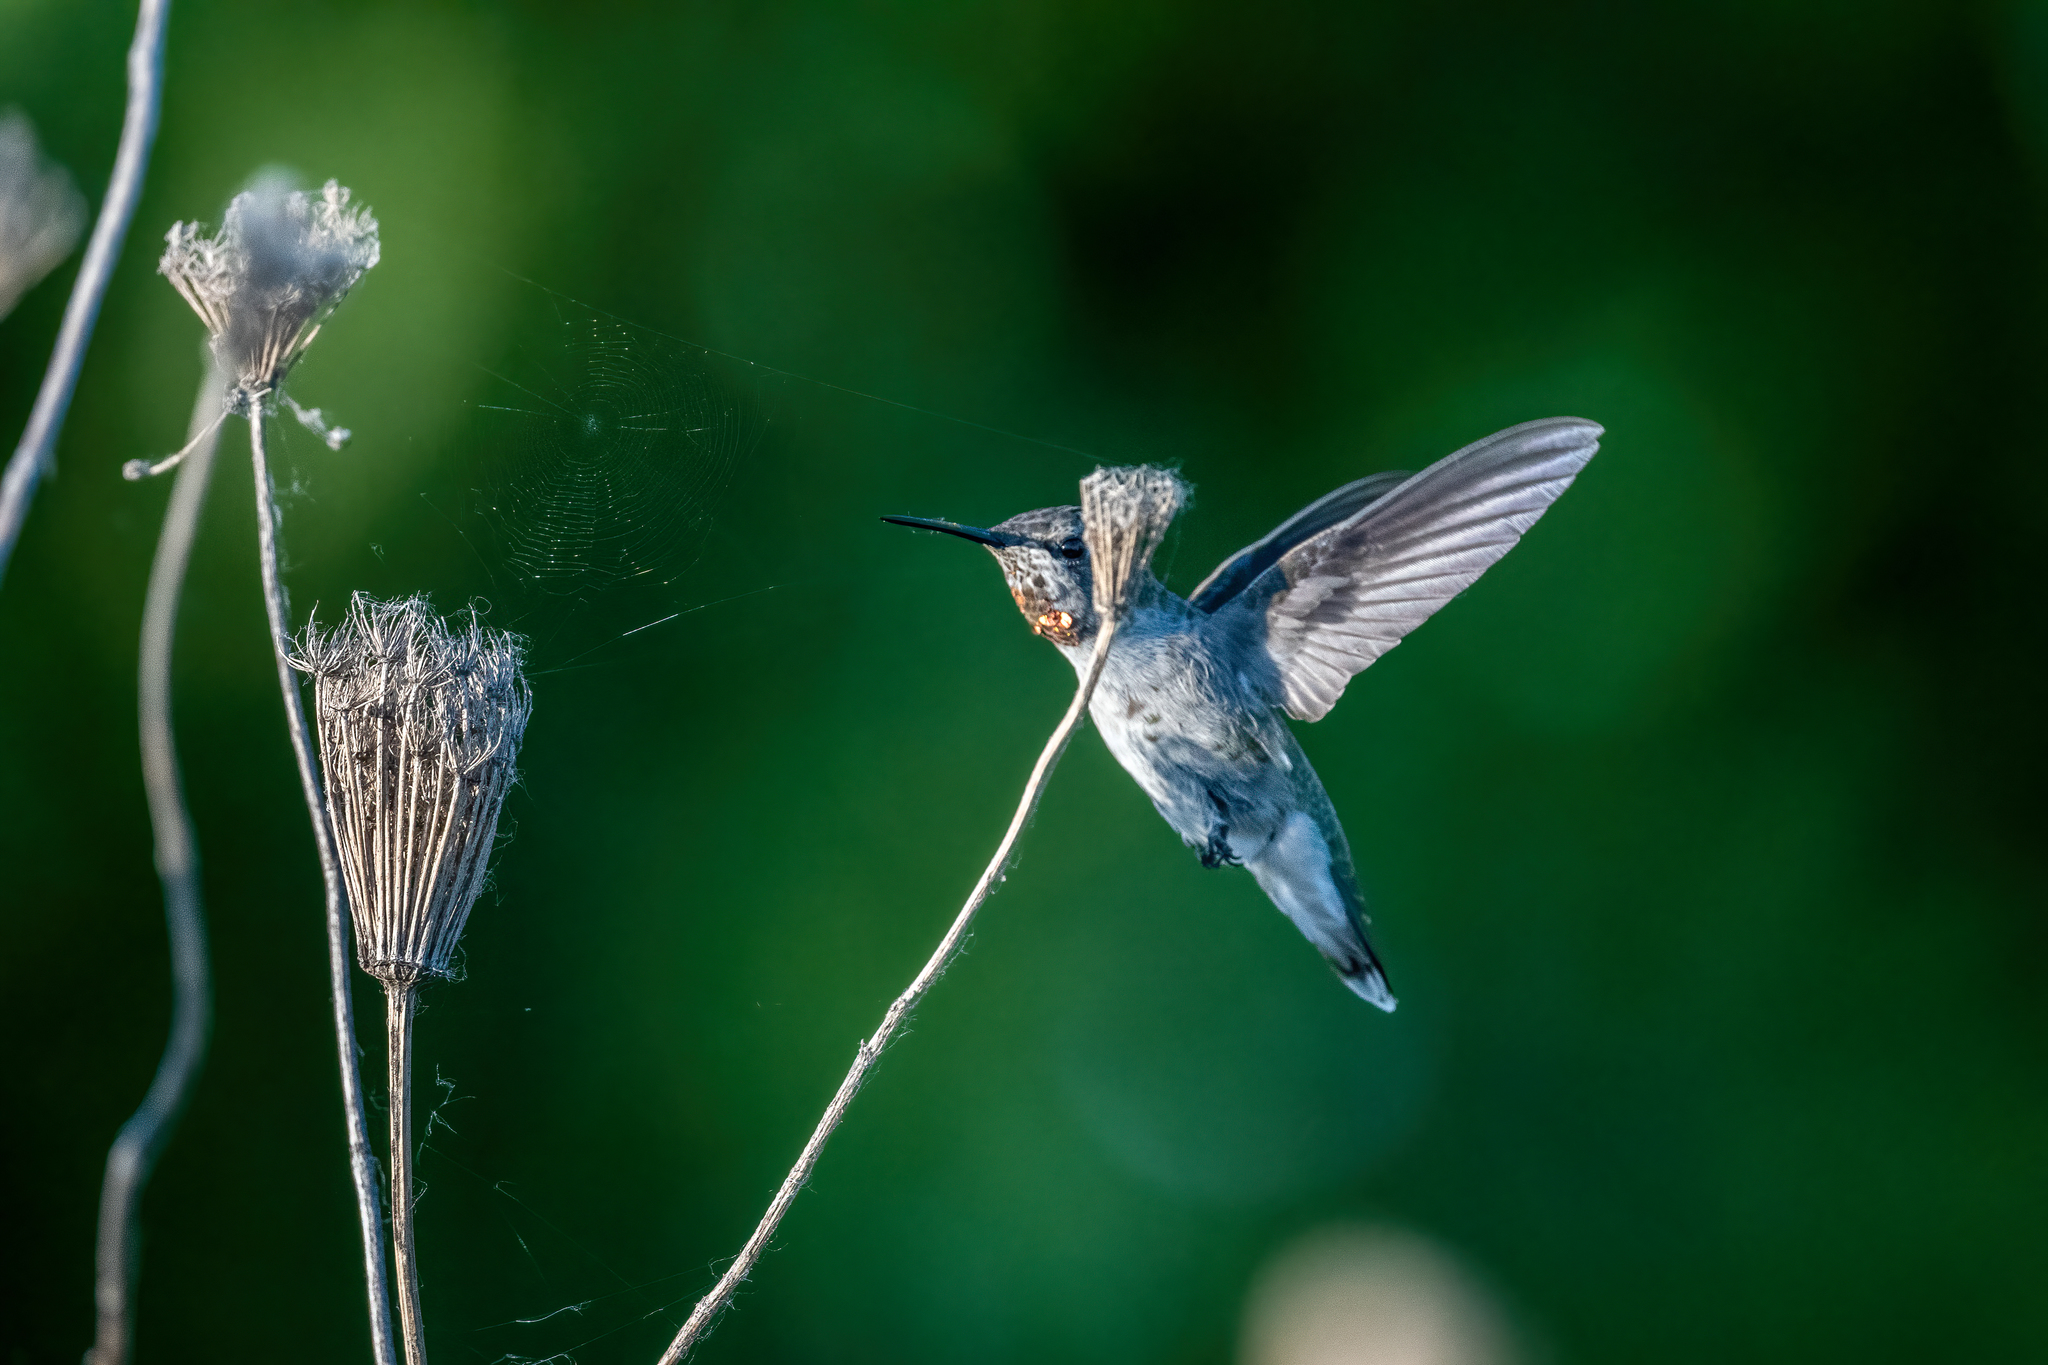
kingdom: Animalia
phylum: Chordata
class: Aves
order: Apodiformes
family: Trochilidae
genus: Calypte
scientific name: Calypte anna
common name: Anna's hummingbird
